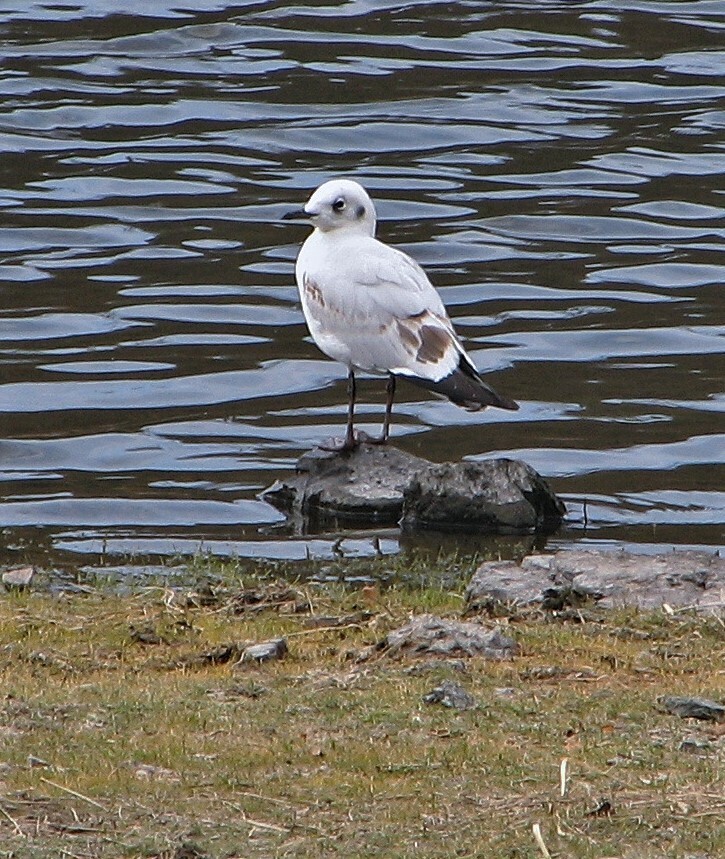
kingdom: Animalia
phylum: Chordata
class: Aves
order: Charadriiformes
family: Laridae
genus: Chroicocephalus
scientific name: Chroicocephalus serranus
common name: Andean gull
